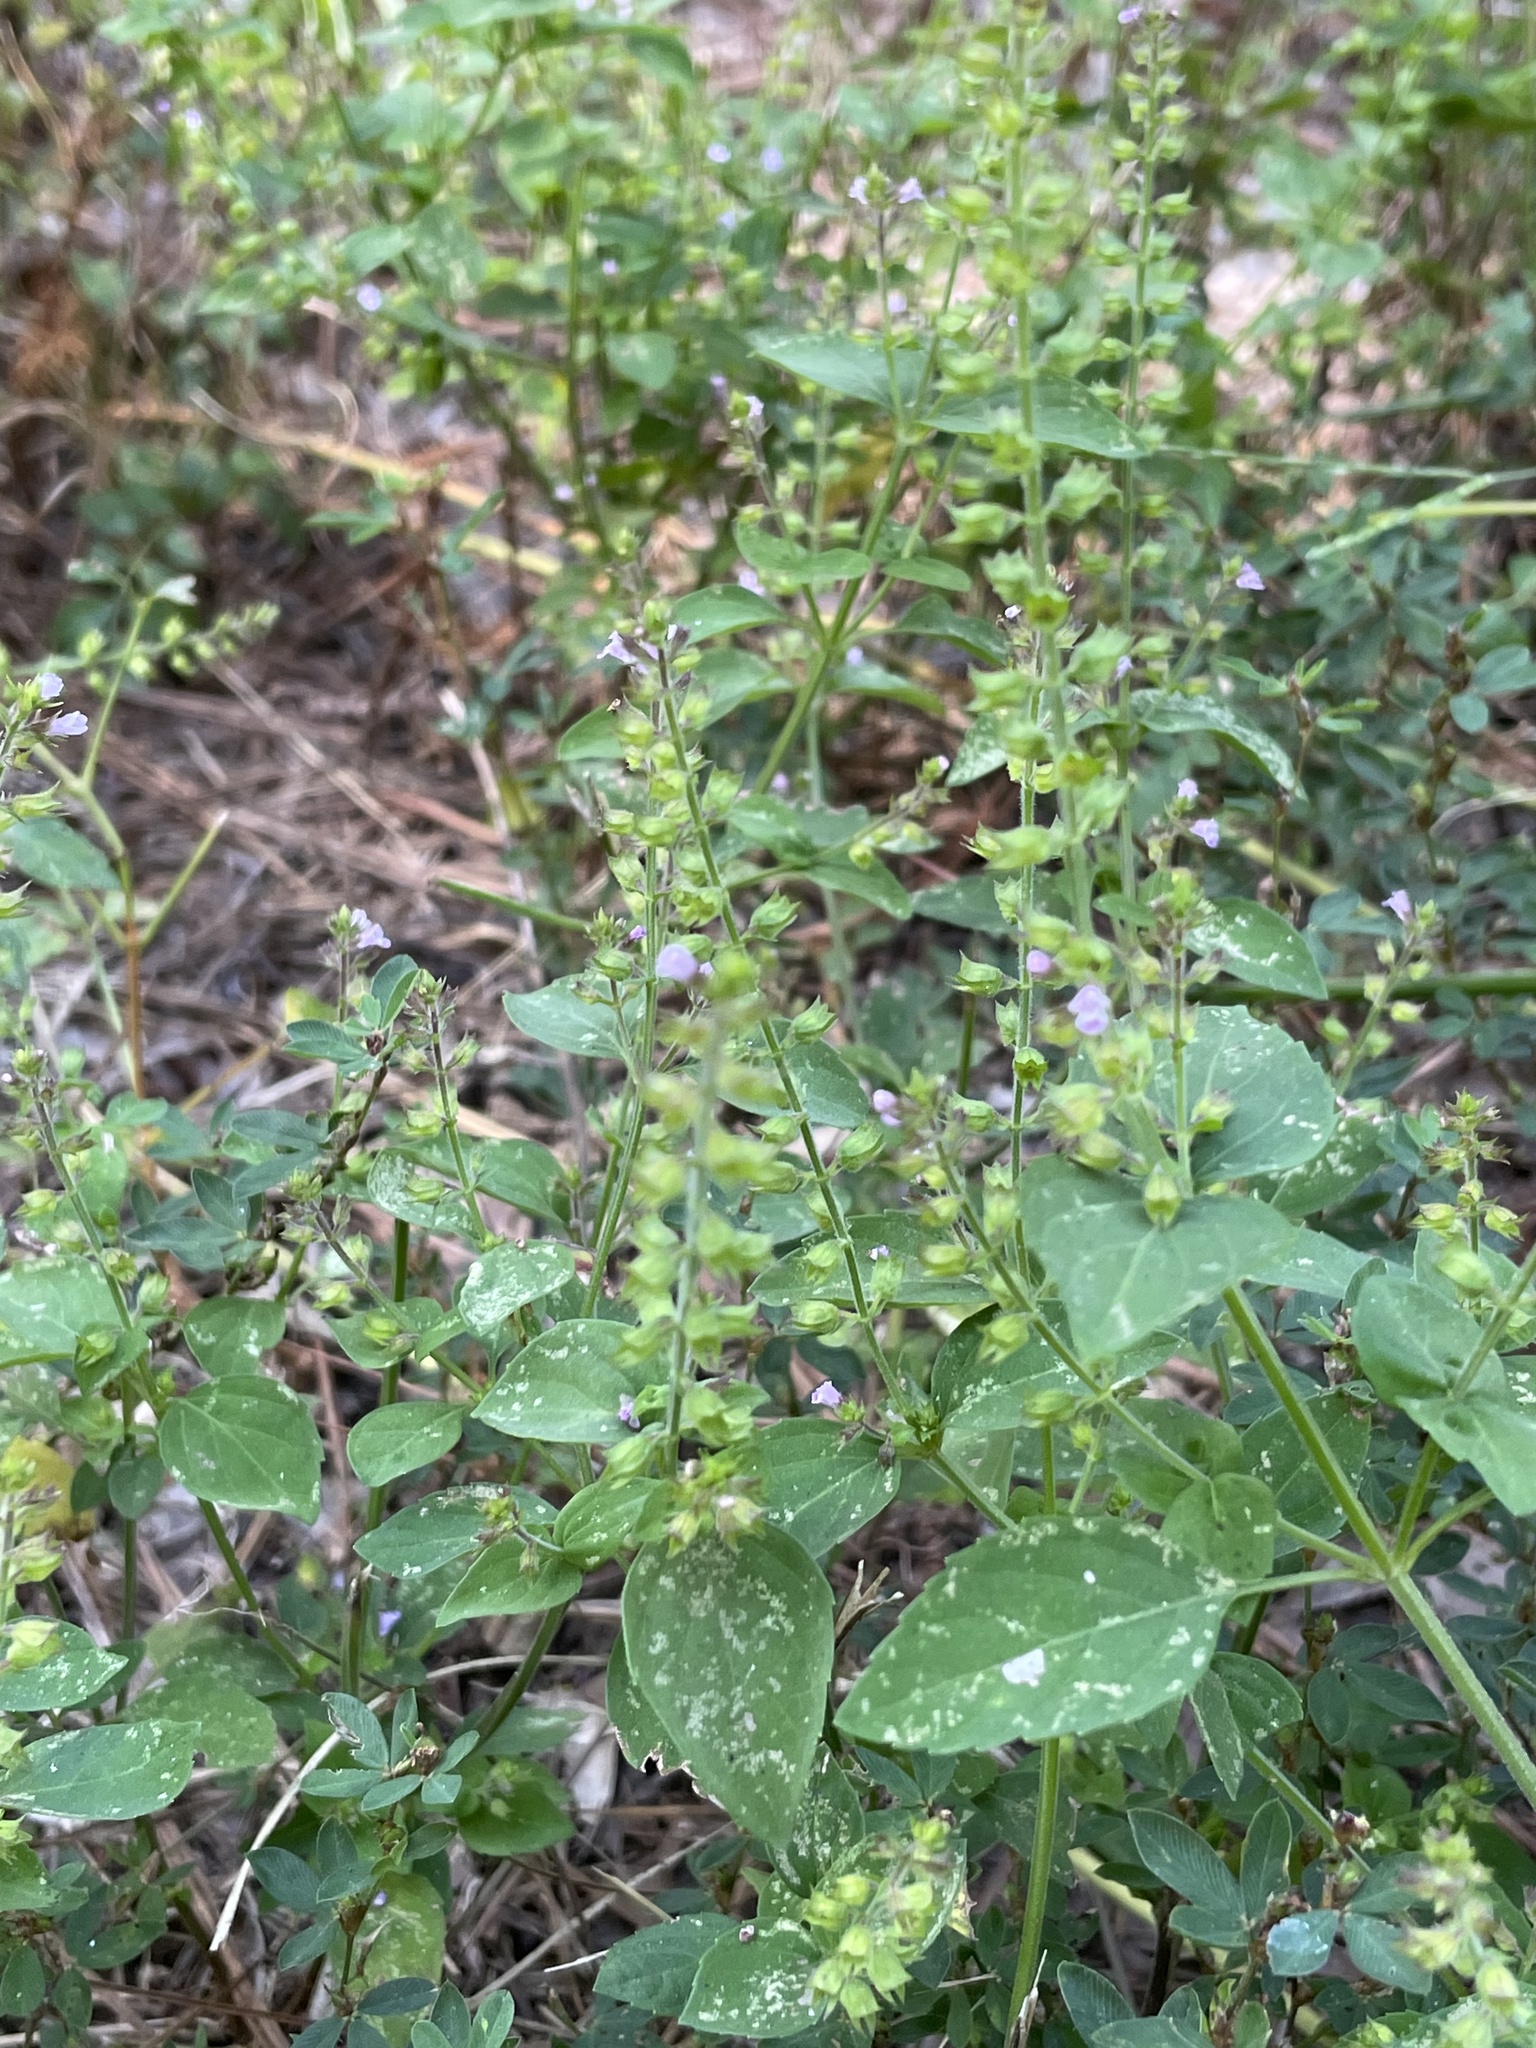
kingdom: Plantae
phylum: Tracheophyta
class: Magnoliopsida
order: Lamiales
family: Lamiaceae
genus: Mosla
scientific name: Mosla dianthera
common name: Miniature beefsteakplant
